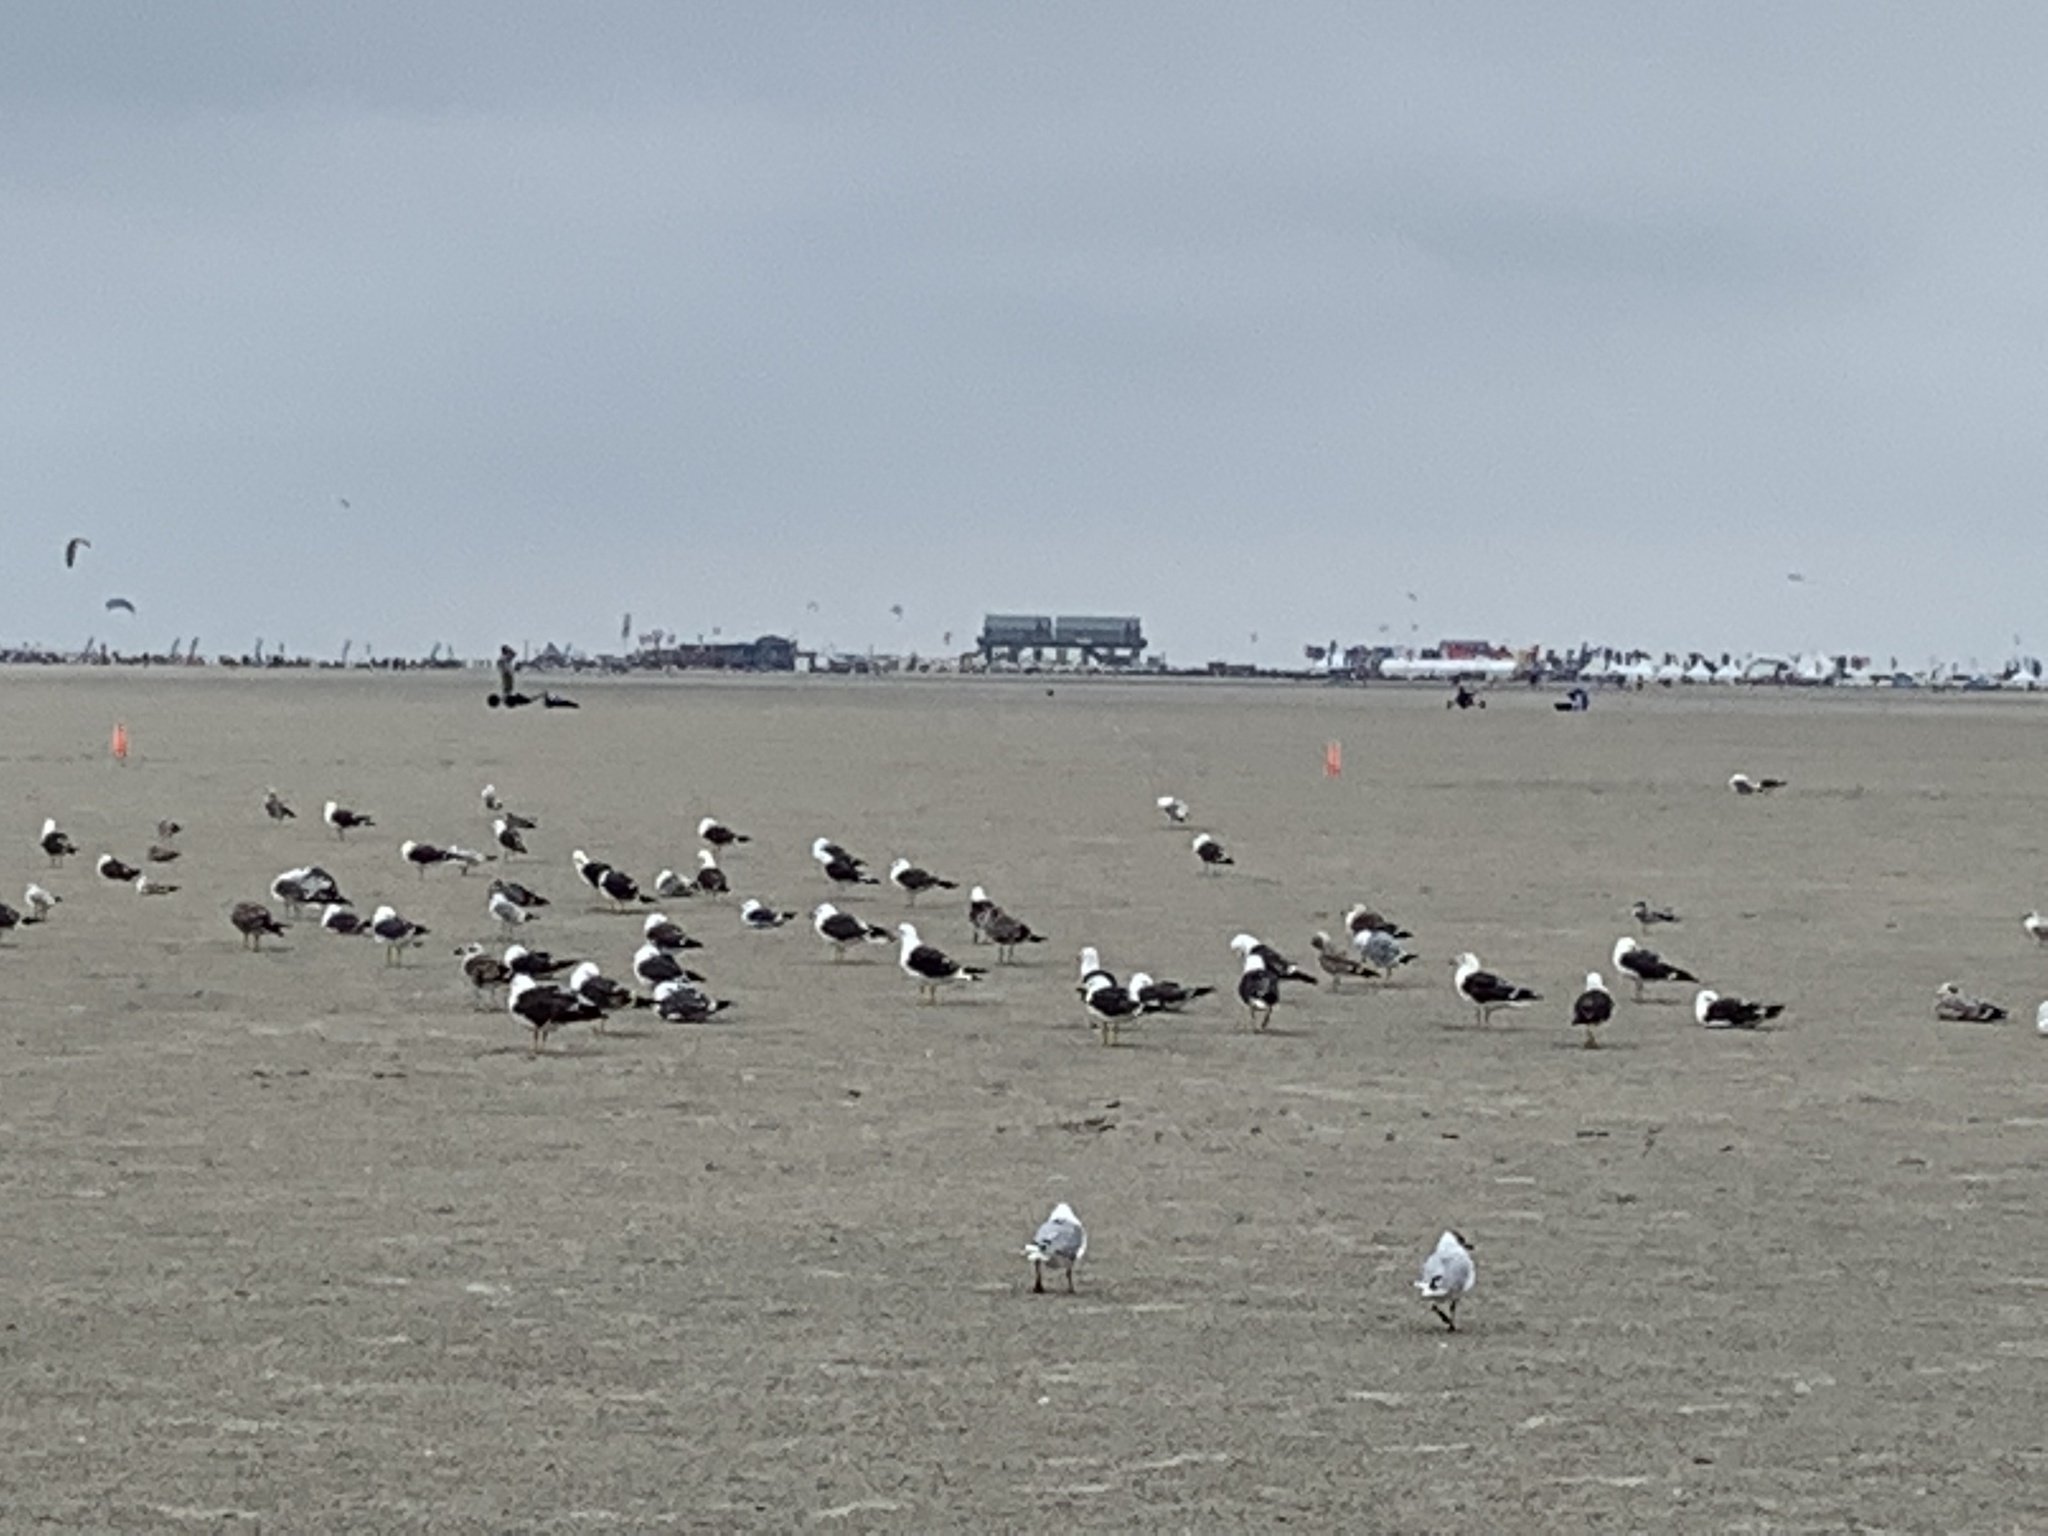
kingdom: Animalia
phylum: Chordata
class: Aves
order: Charadriiformes
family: Laridae
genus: Larus
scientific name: Larus fuscus
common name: Lesser black-backed gull
